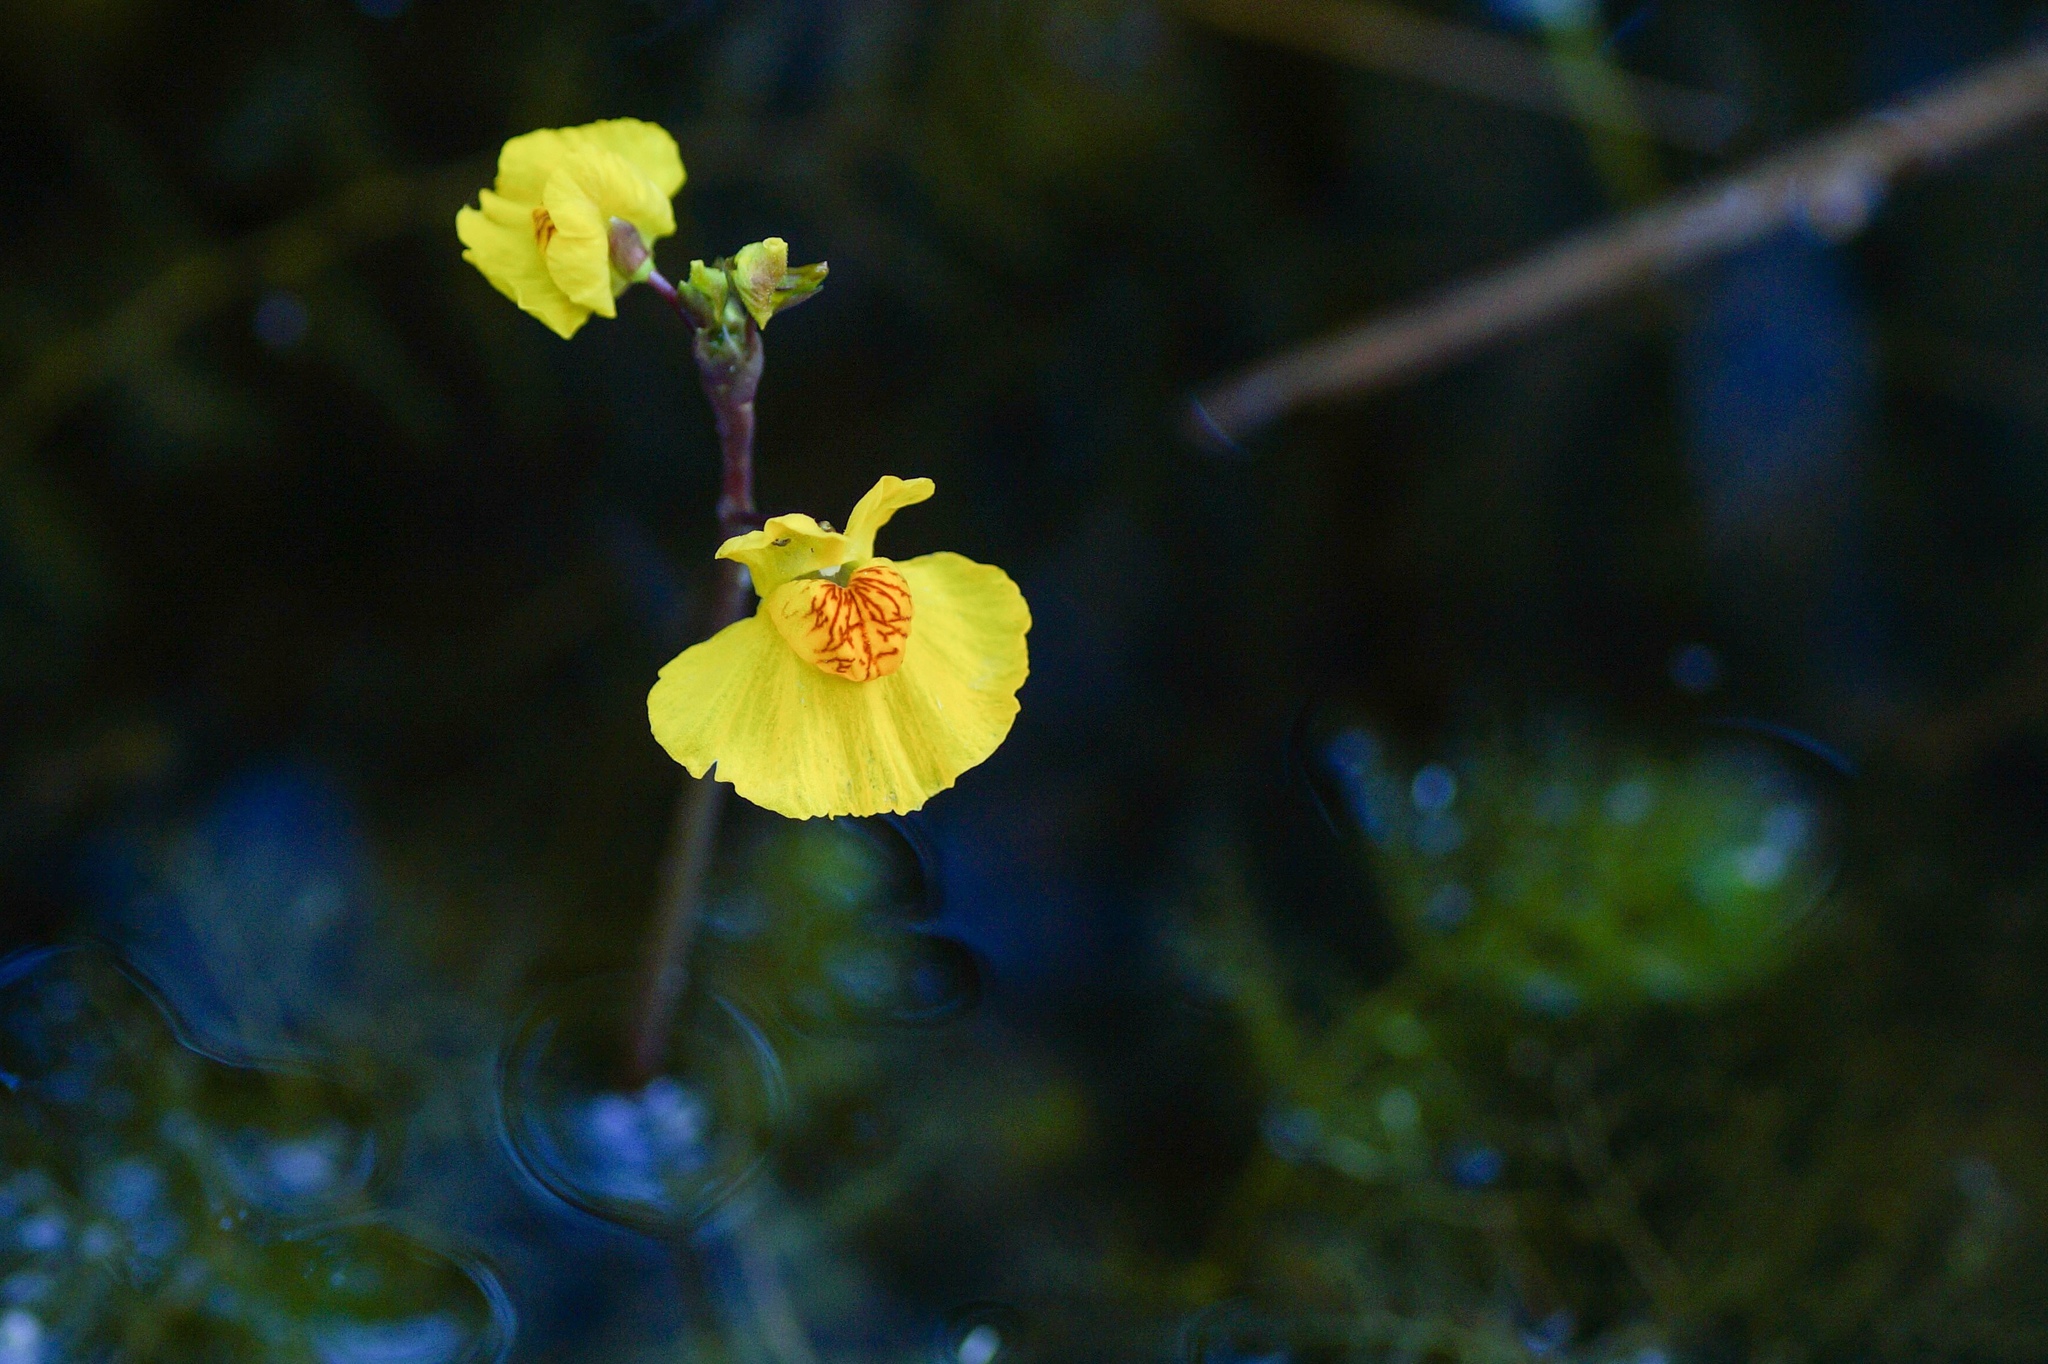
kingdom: Plantae
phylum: Tracheophyta
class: Magnoliopsida
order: Lamiales
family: Lentibulariaceae
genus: Utricularia
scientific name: Utricularia australis
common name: Bladderwort
